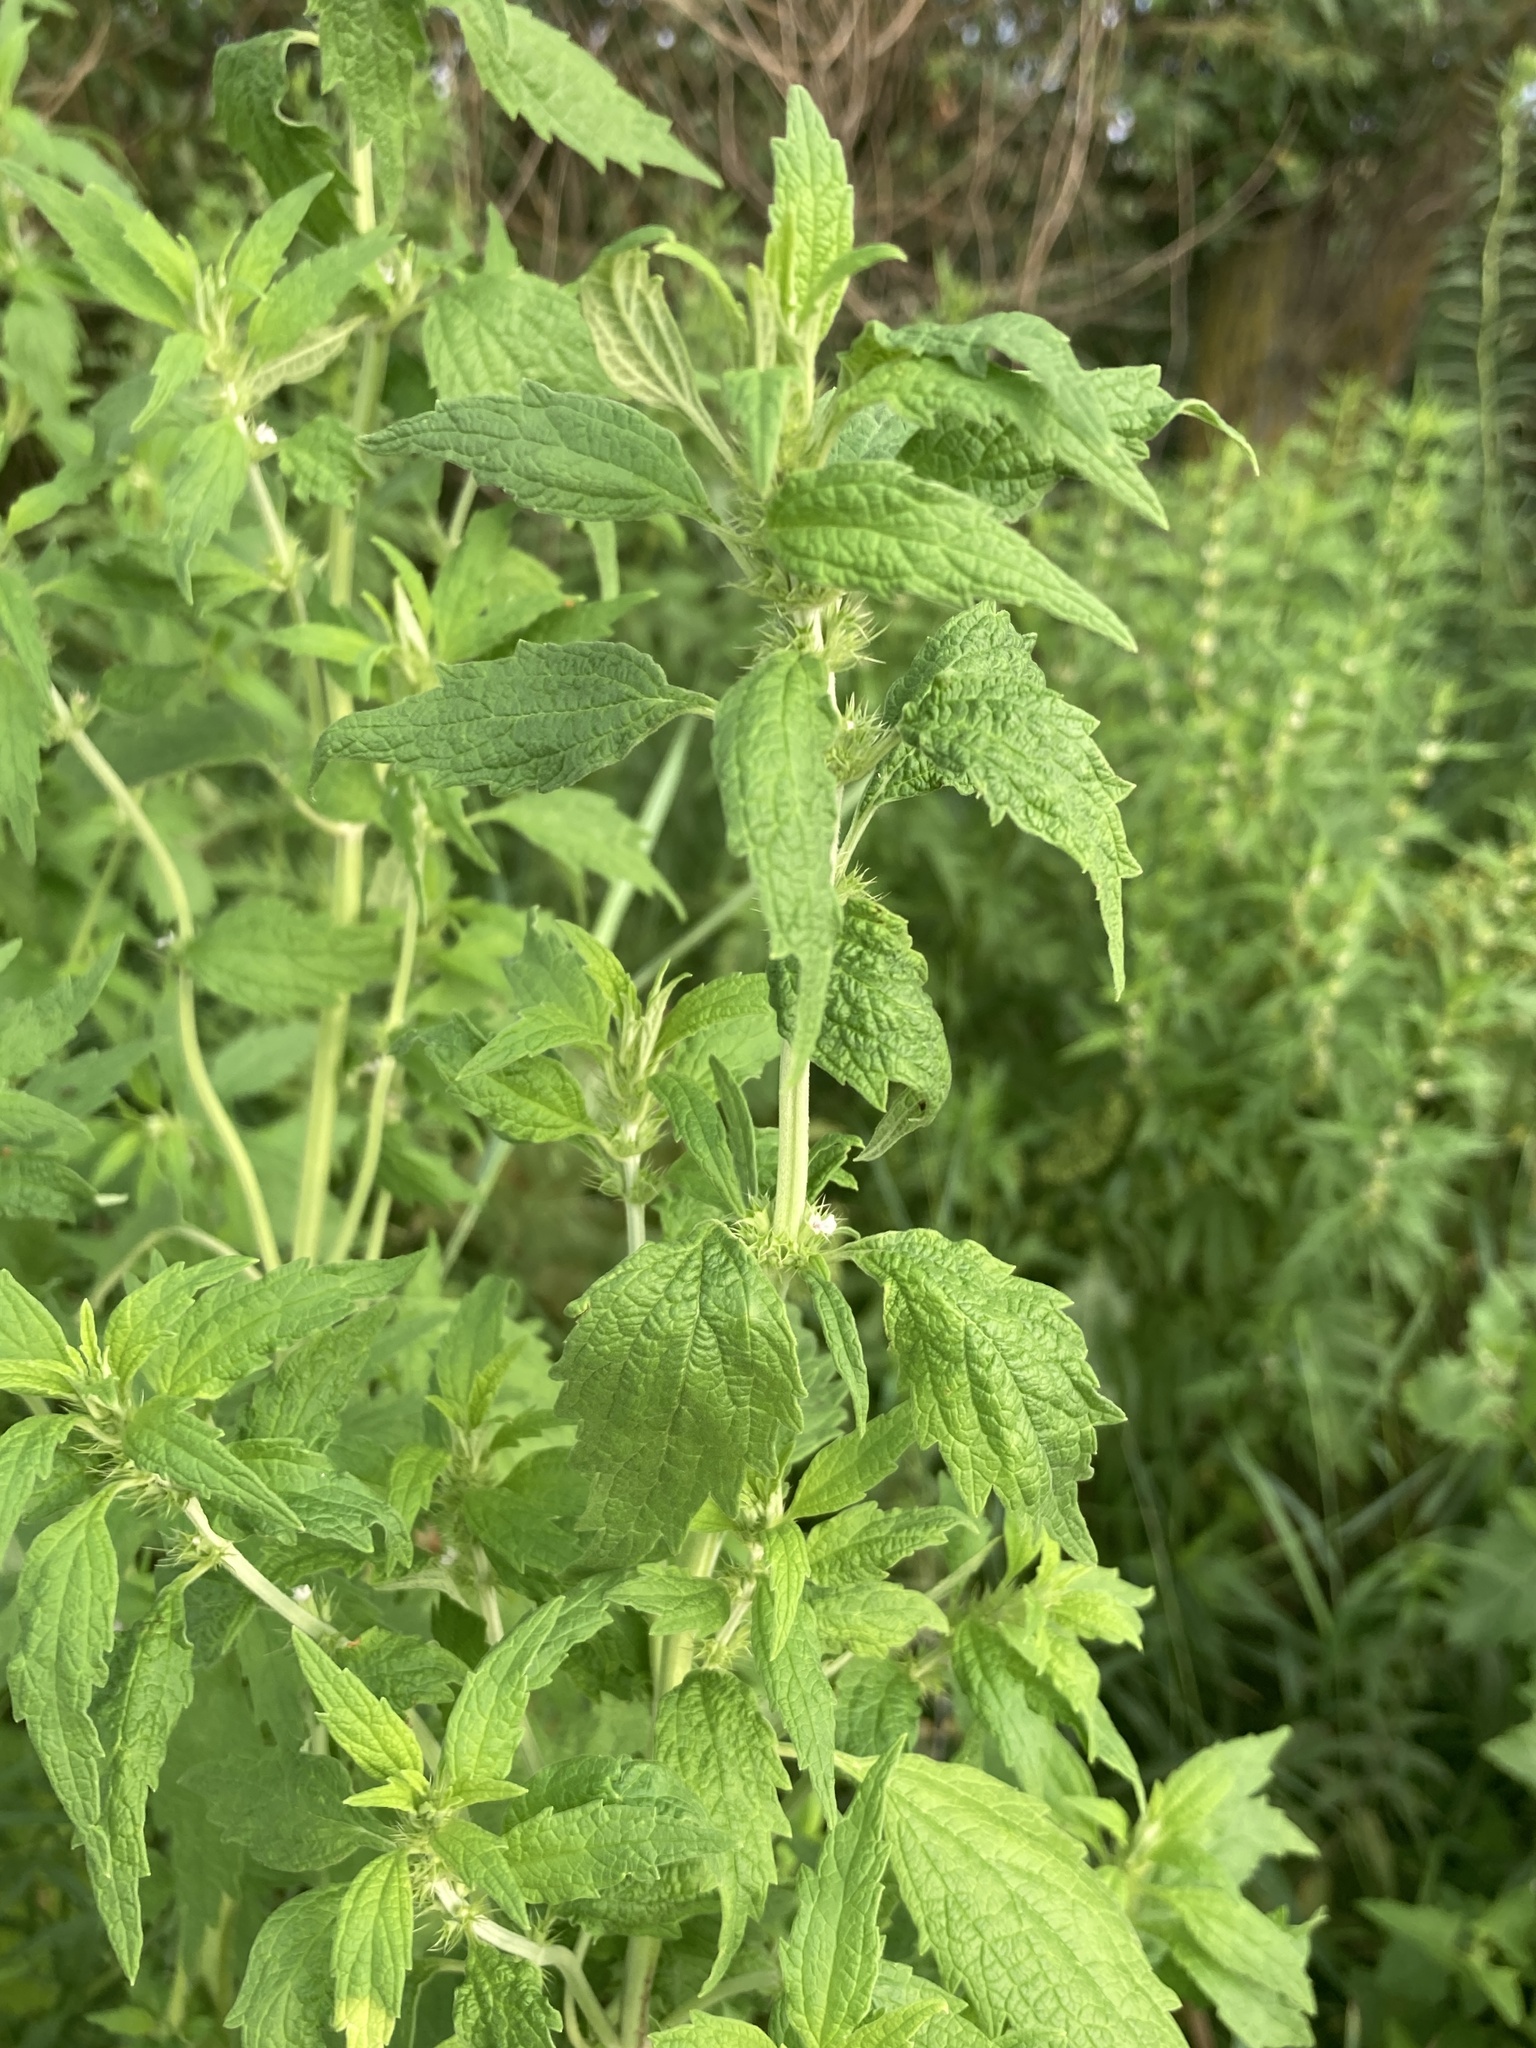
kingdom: Plantae
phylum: Tracheophyta
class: Magnoliopsida
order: Lamiales
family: Lamiaceae
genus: Chaiturus
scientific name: Chaiturus marrubiastrum
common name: Lion's tail
